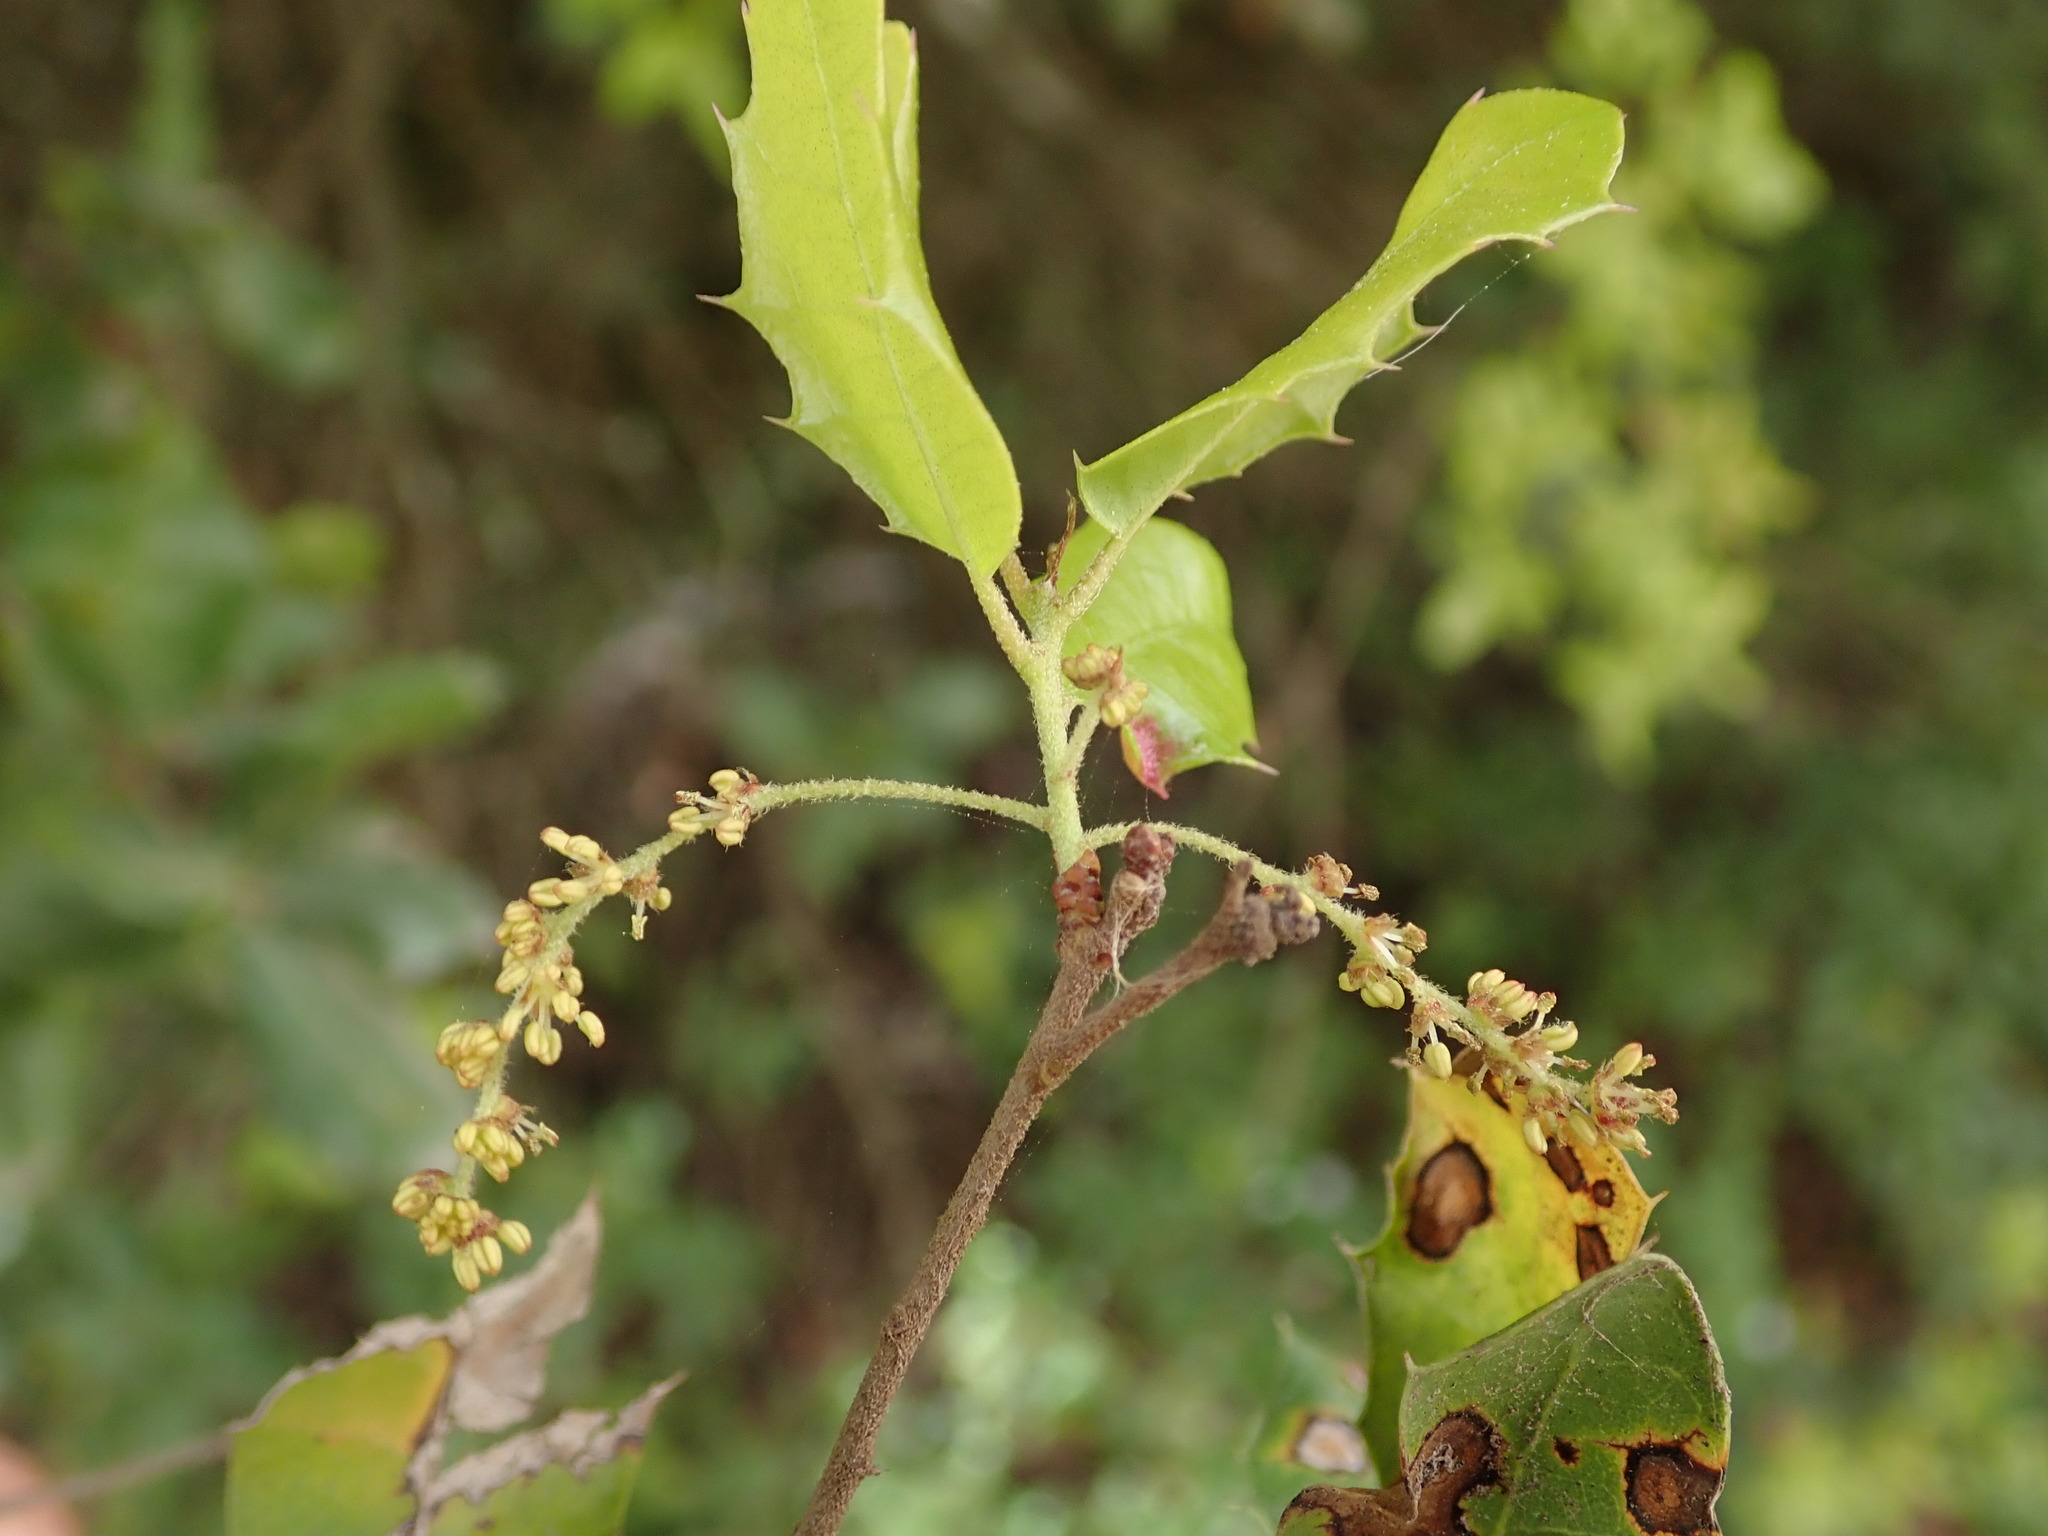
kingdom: Plantae
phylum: Tracheophyta
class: Magnoliopsida
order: Fagales
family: Fagaceae
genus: Quercus
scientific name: Quercus coccifera
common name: Kermes oak
